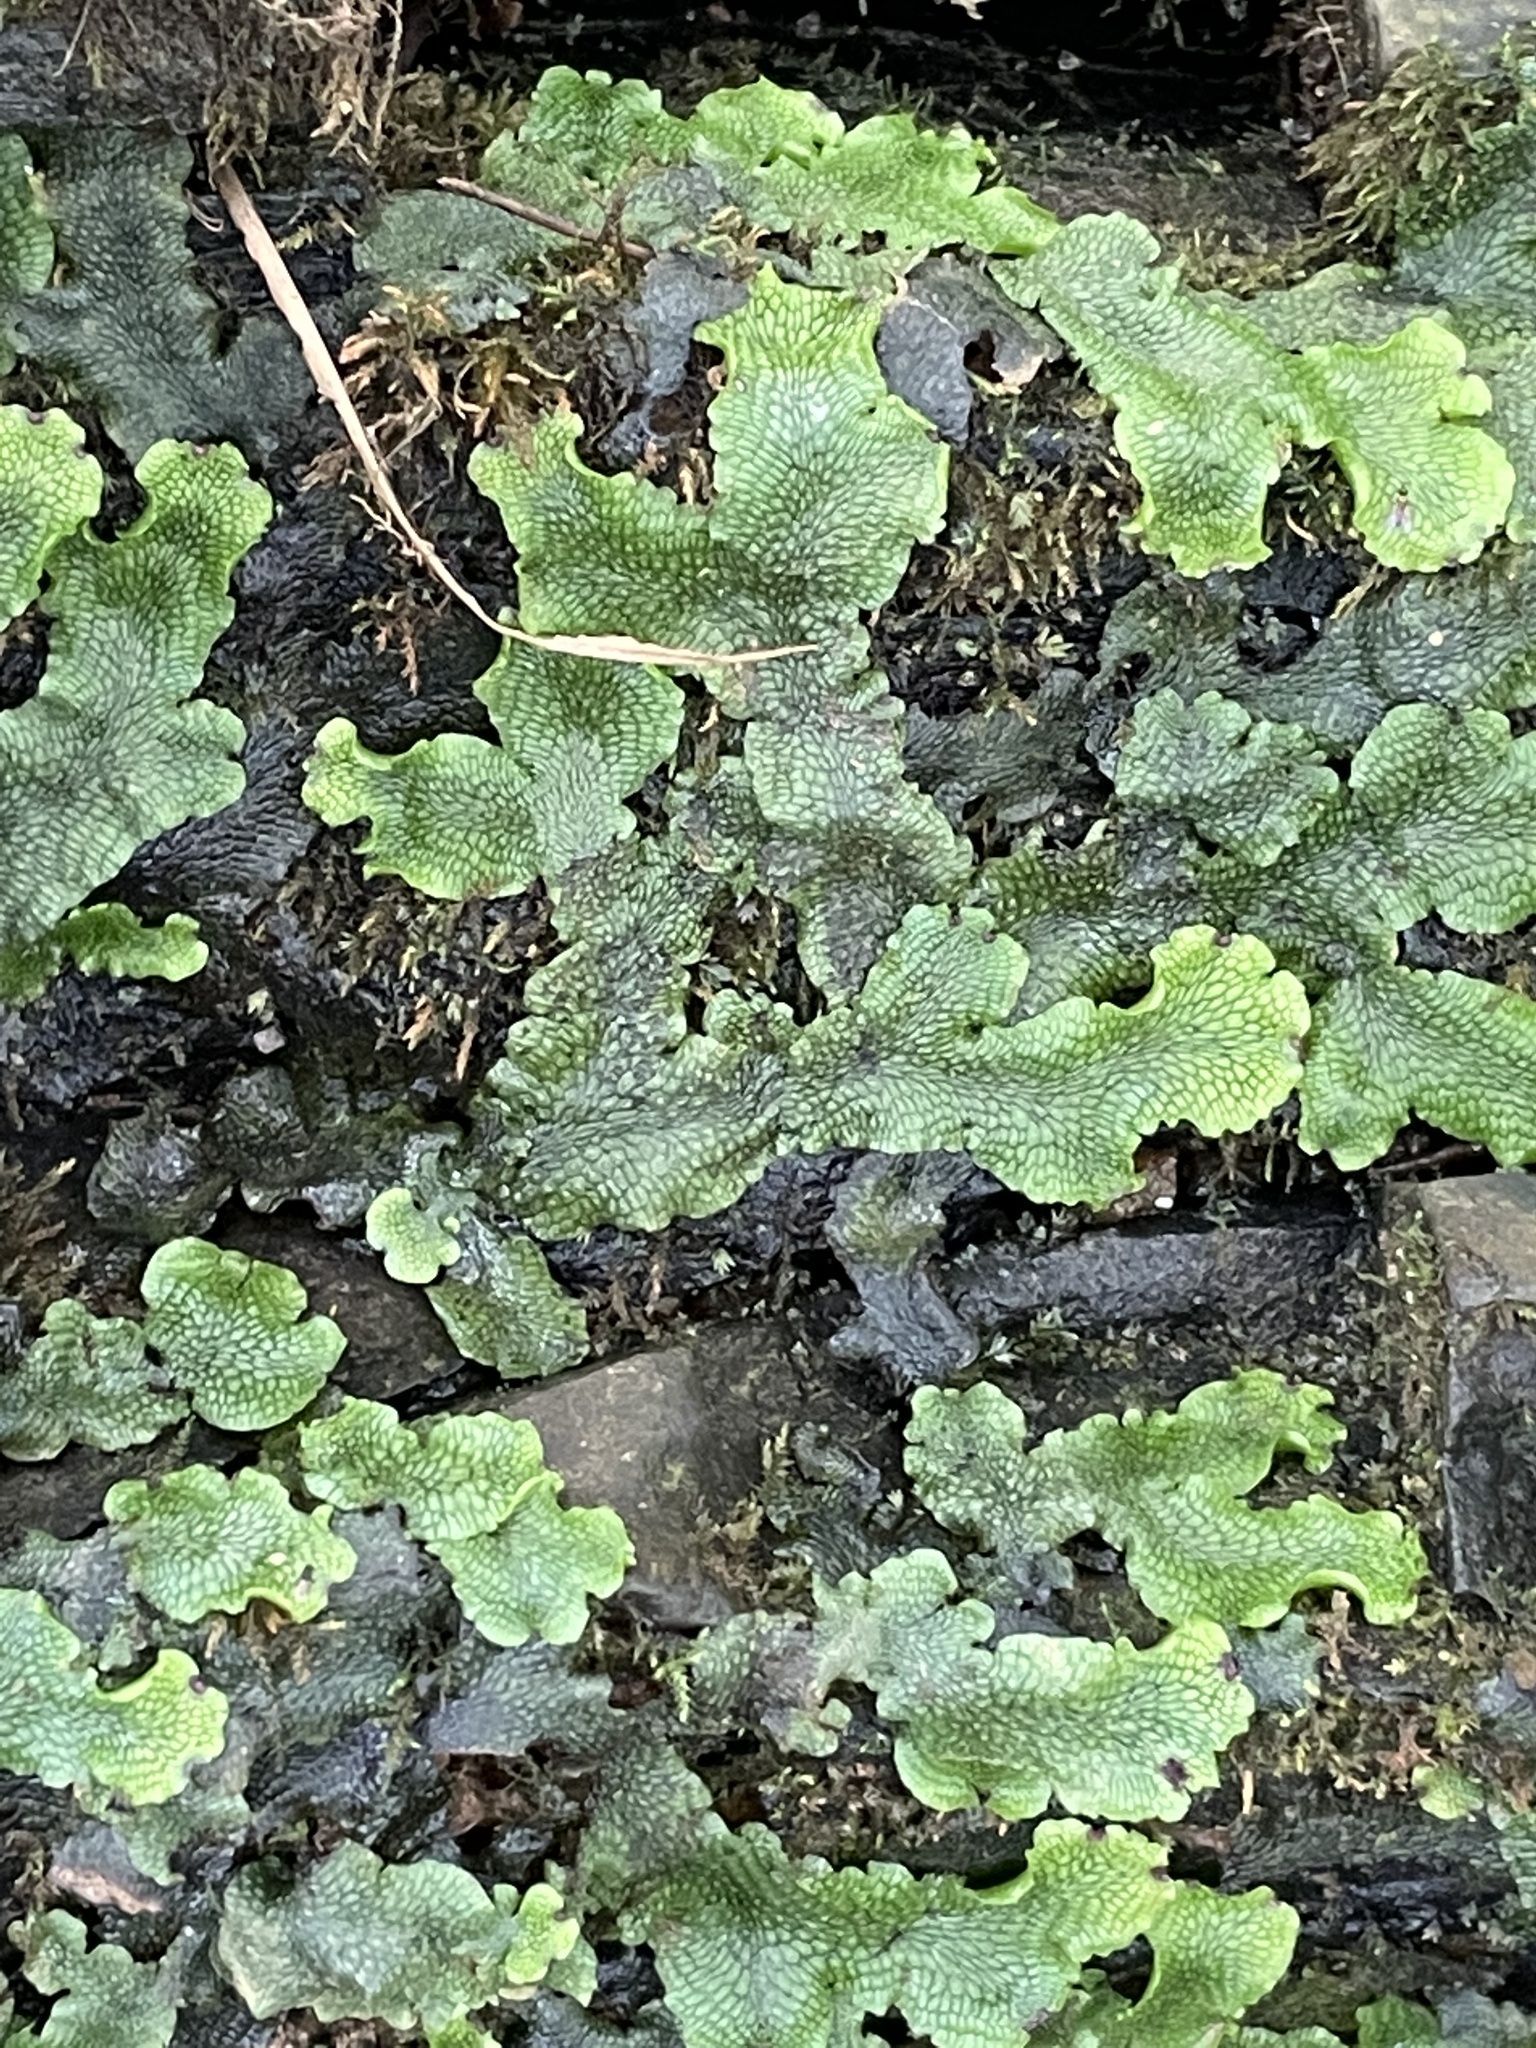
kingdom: Plantae
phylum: Marchantiophyta
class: Marchantiopsida
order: Marchantiales
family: Conocephalaceae
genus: Conocephalum
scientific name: Conocephalum salebrosum
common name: Cat-tongue liverwort
